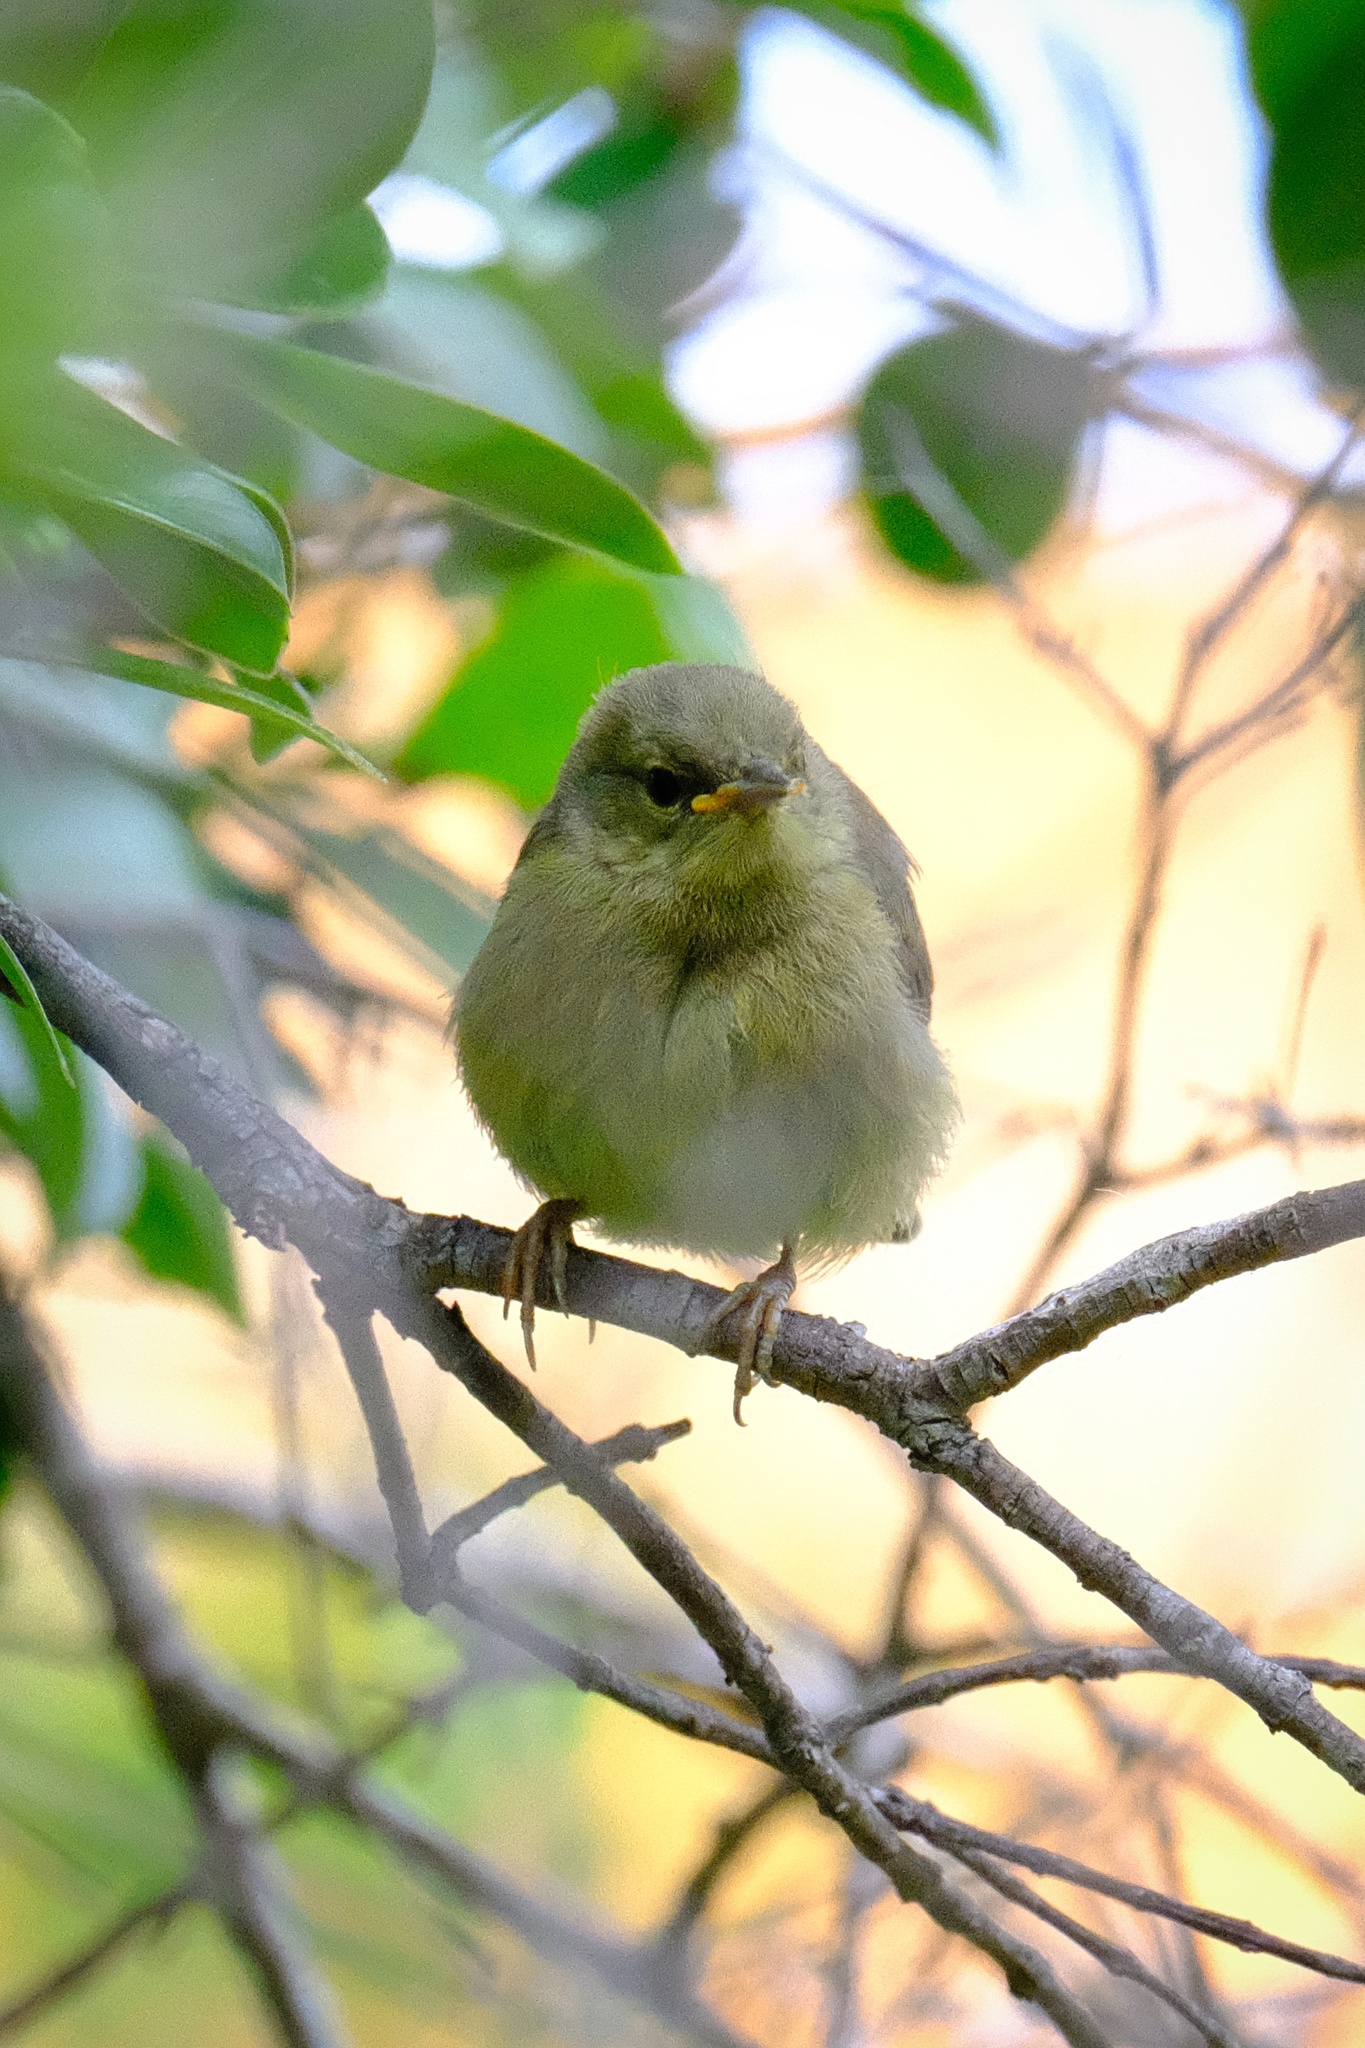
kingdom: Animalia
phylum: Chordata
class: Aves
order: Passeriformes
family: Parulidae
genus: Leiothlypis
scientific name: Leiothlypis celata
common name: Orange-crowned warbler
